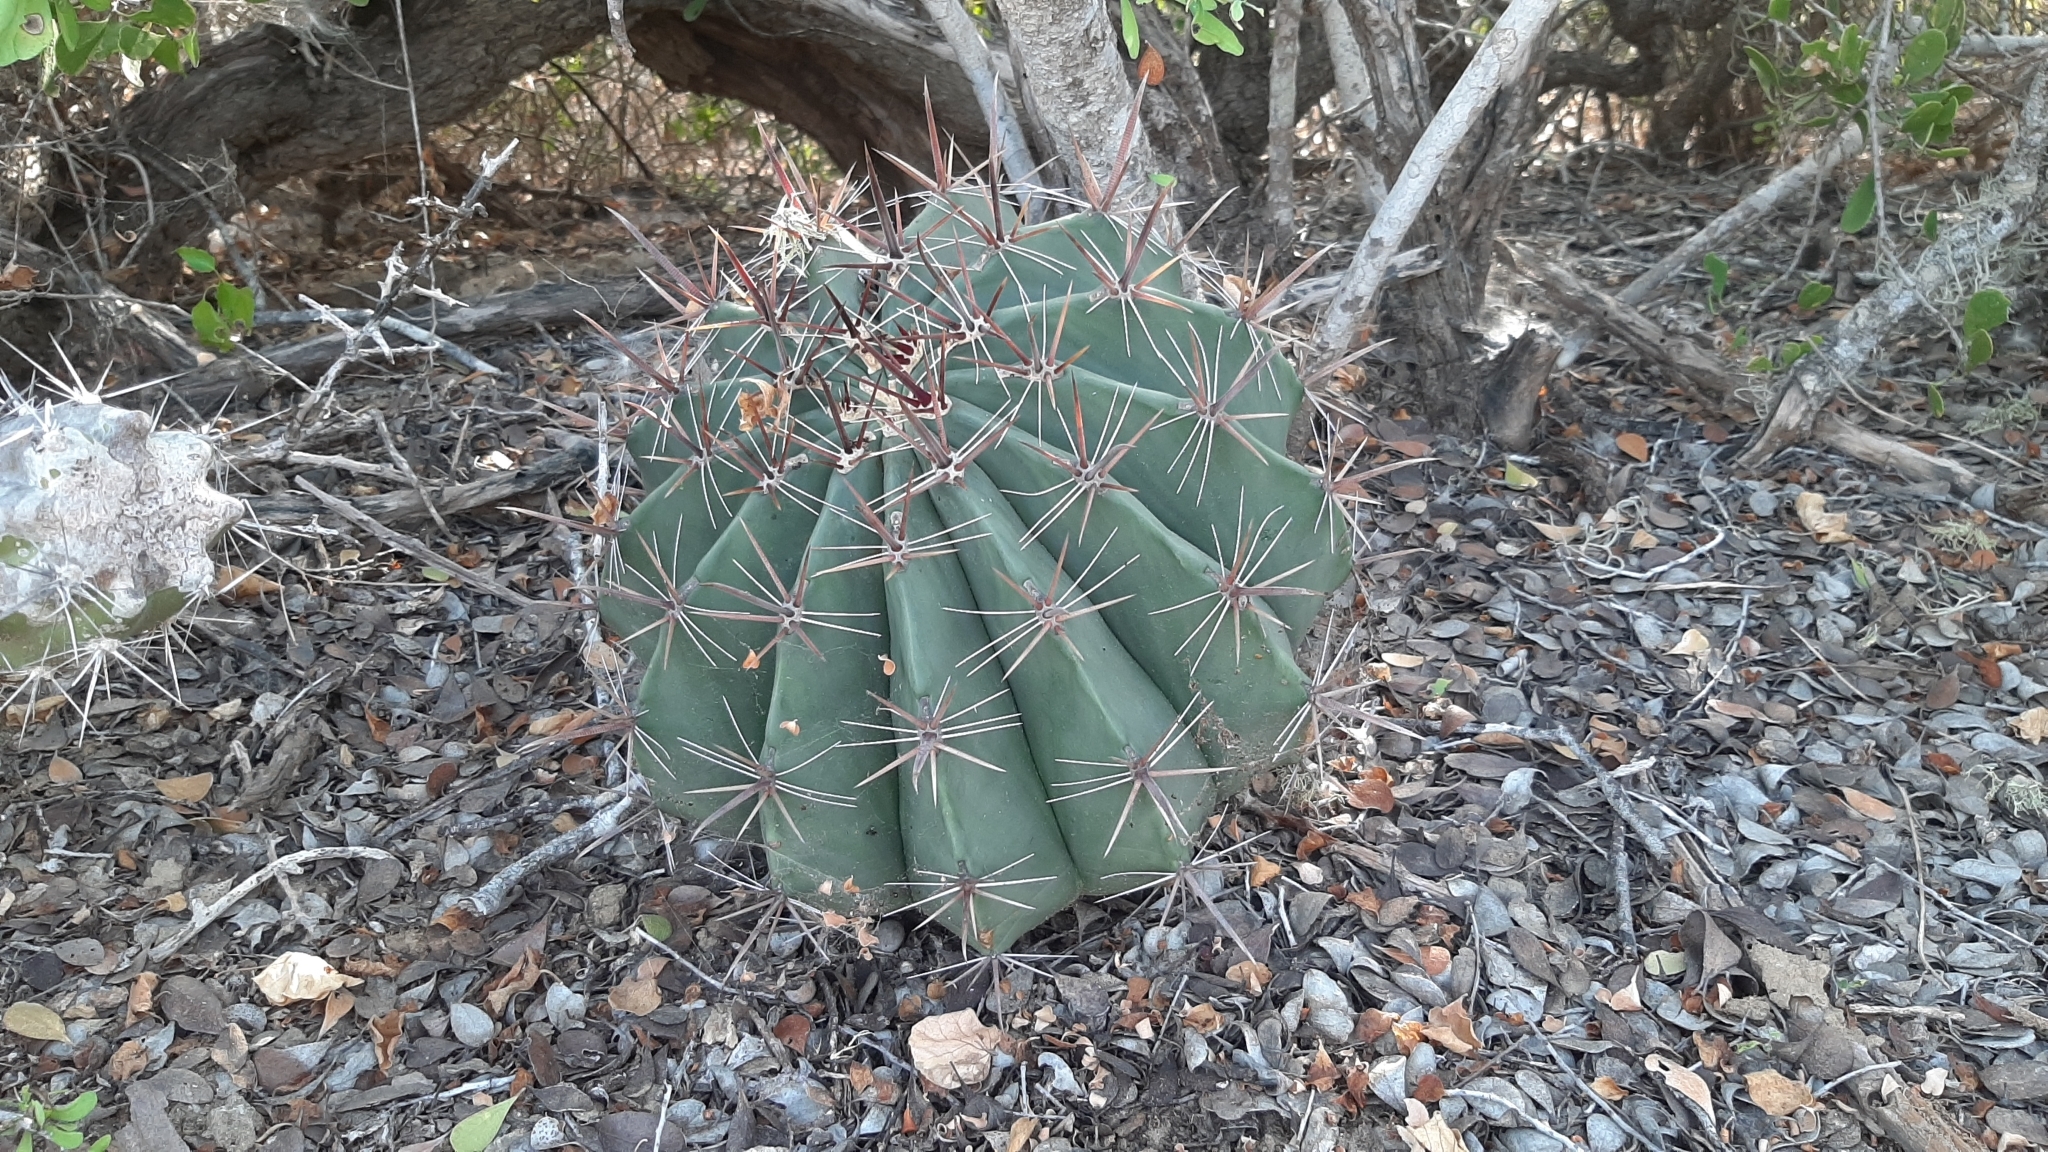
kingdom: Plantae
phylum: Tracheophyta
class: Magnoliopsida
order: Caryophyllales
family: Cactaceae
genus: Ferocactus
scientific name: Ferocactus townsendianus
